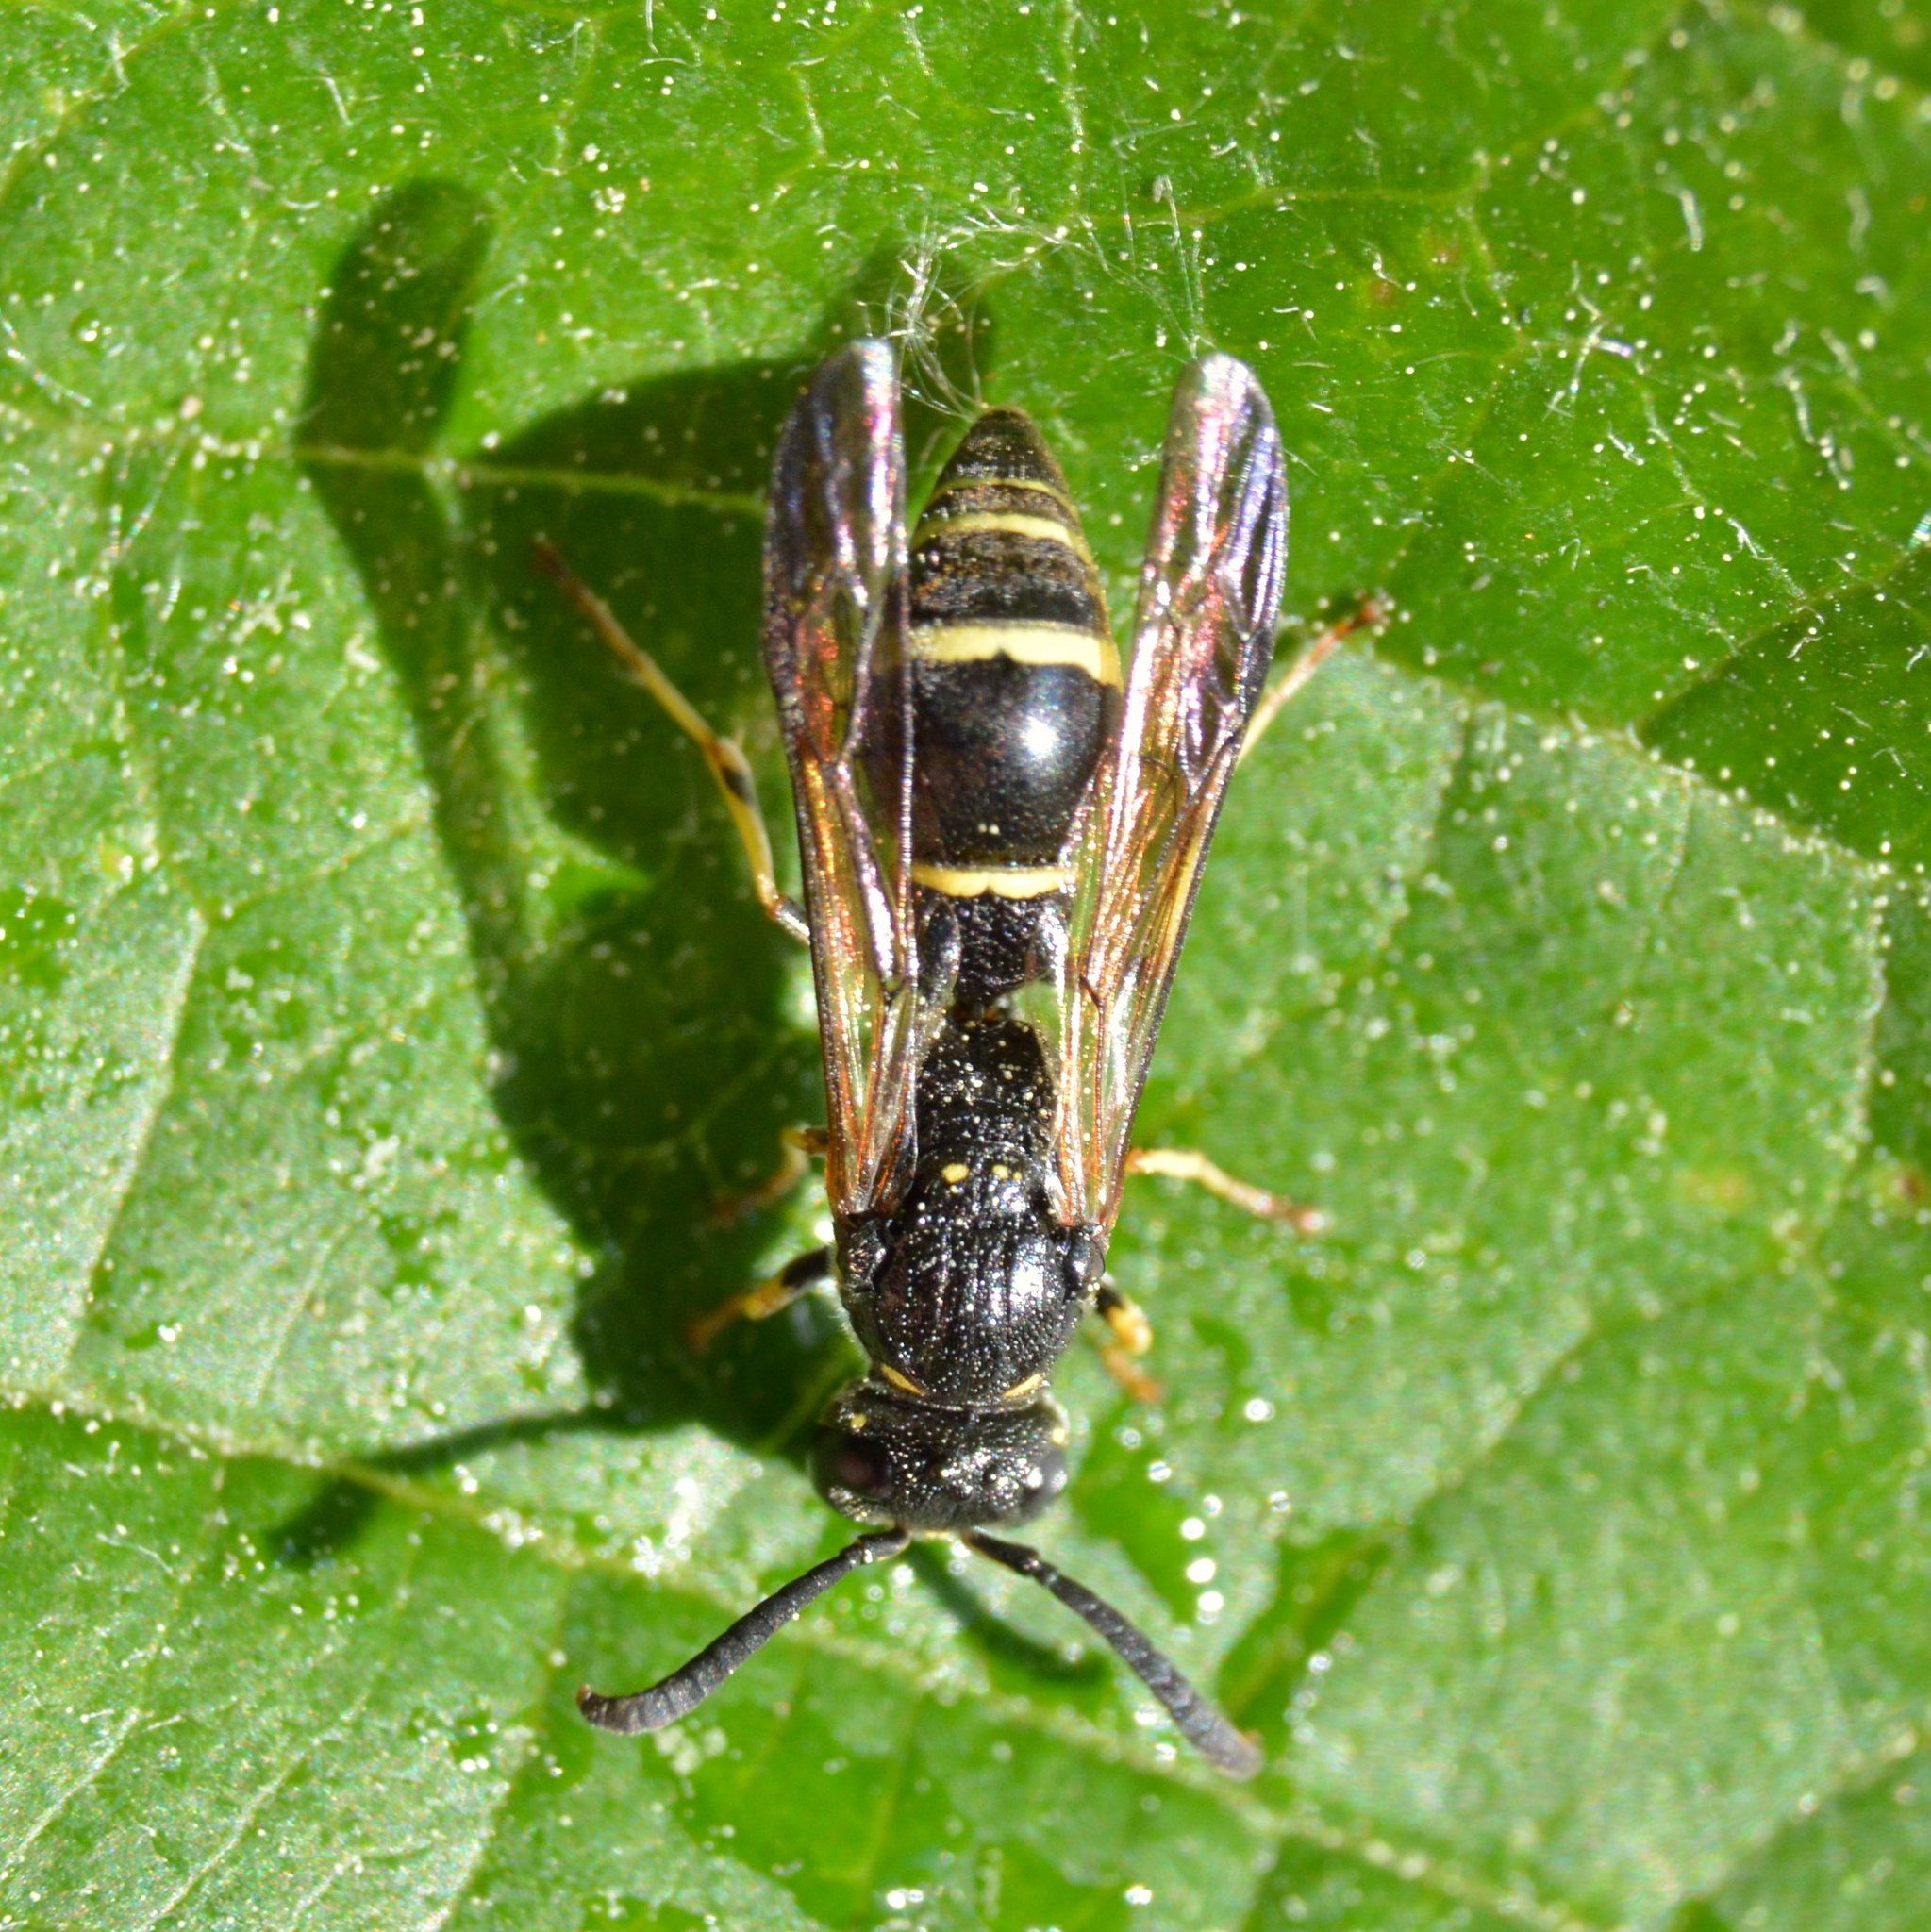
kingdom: Animalia
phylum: Arthropoda
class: Insecta
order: Hymenoptera
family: Eumenidae
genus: Symmorphus
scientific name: Symmorphus
